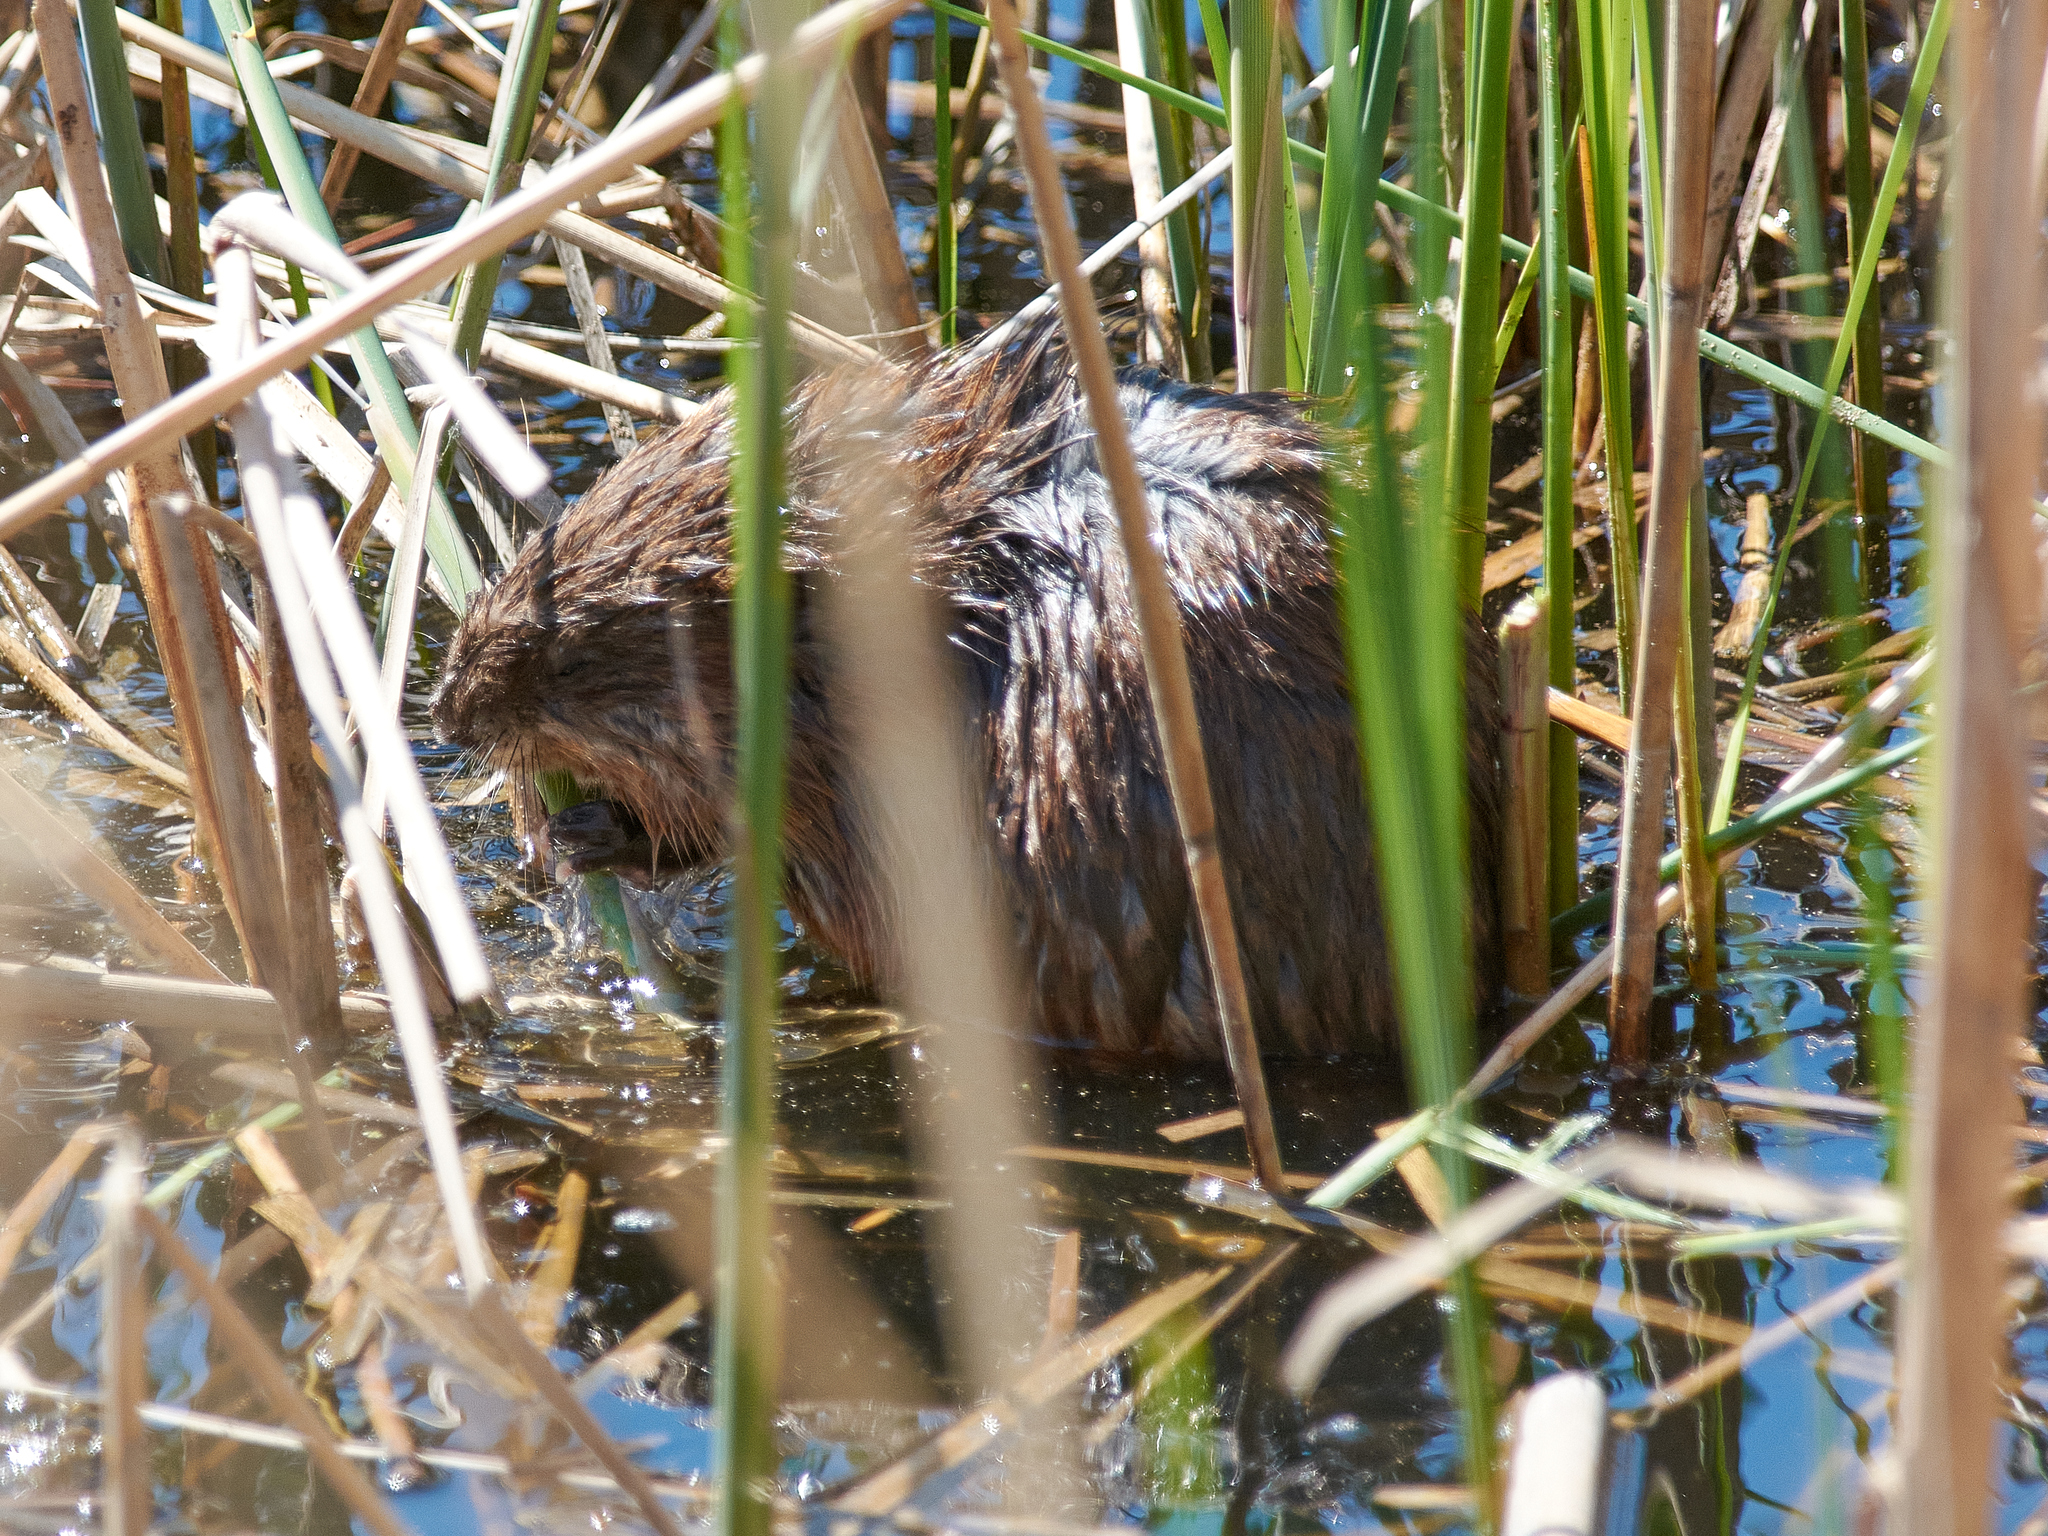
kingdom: Animalia
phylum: Chordata
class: Mammalia
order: Rodentia
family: Cricetidae
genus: Ondatra
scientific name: Ondatra zibethicus
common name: Muskrat
